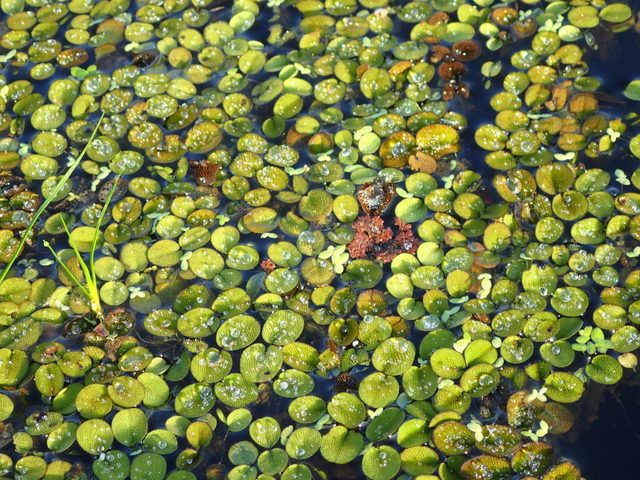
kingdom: Plantae
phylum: Tracheophyta
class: Polypodiopsida
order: Salviniales
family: Salviniaceae
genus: Salvinia
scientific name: Salvinia minima
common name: Water spangles
